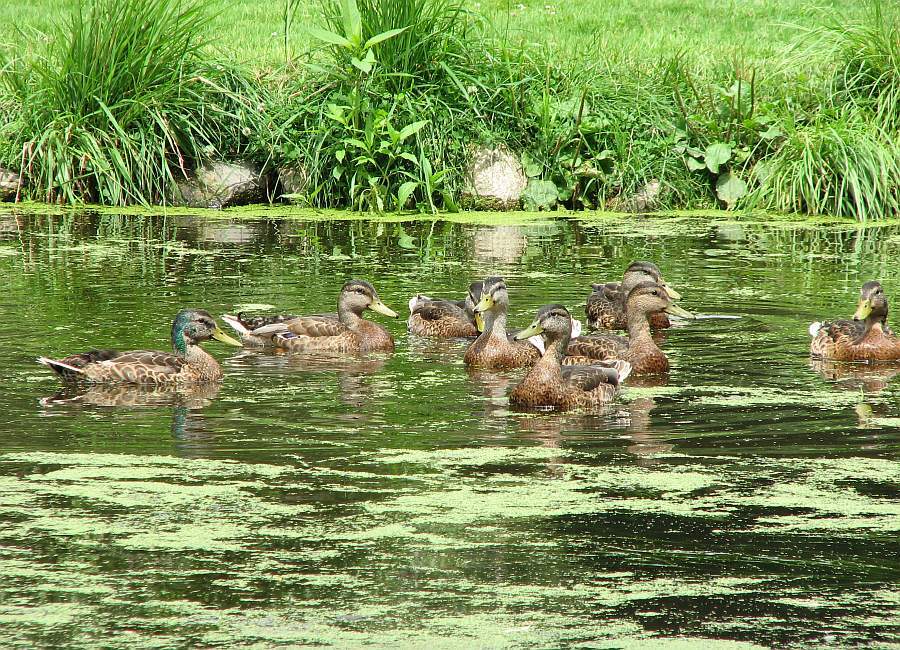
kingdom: Animalia
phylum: Chordata
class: Aves
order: Anseriformes
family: Anatidae
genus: Anas
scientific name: Anas platyrhynchos
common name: Mallard
